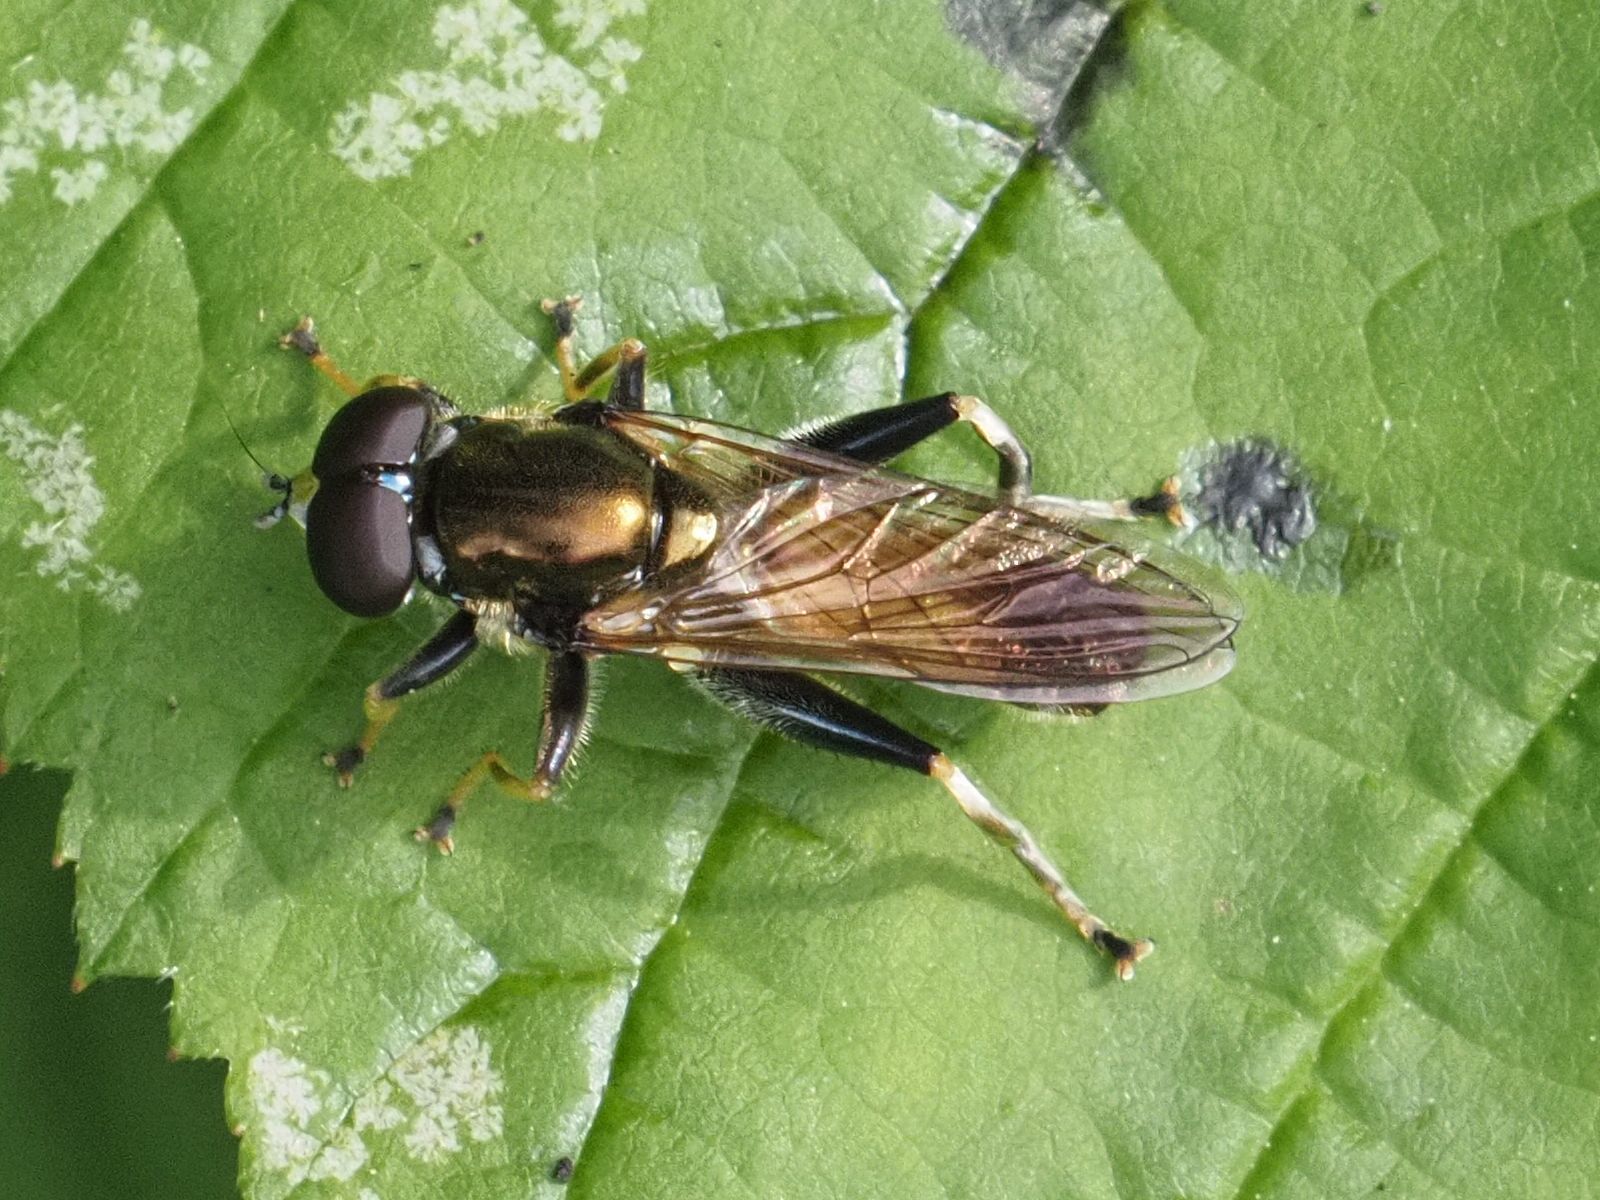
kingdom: Animalia
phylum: Arthropoda
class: Insecta
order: Diptera
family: Syrphidae
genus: Xylota
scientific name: Xylota segnis
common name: Brown-toed forest fly
